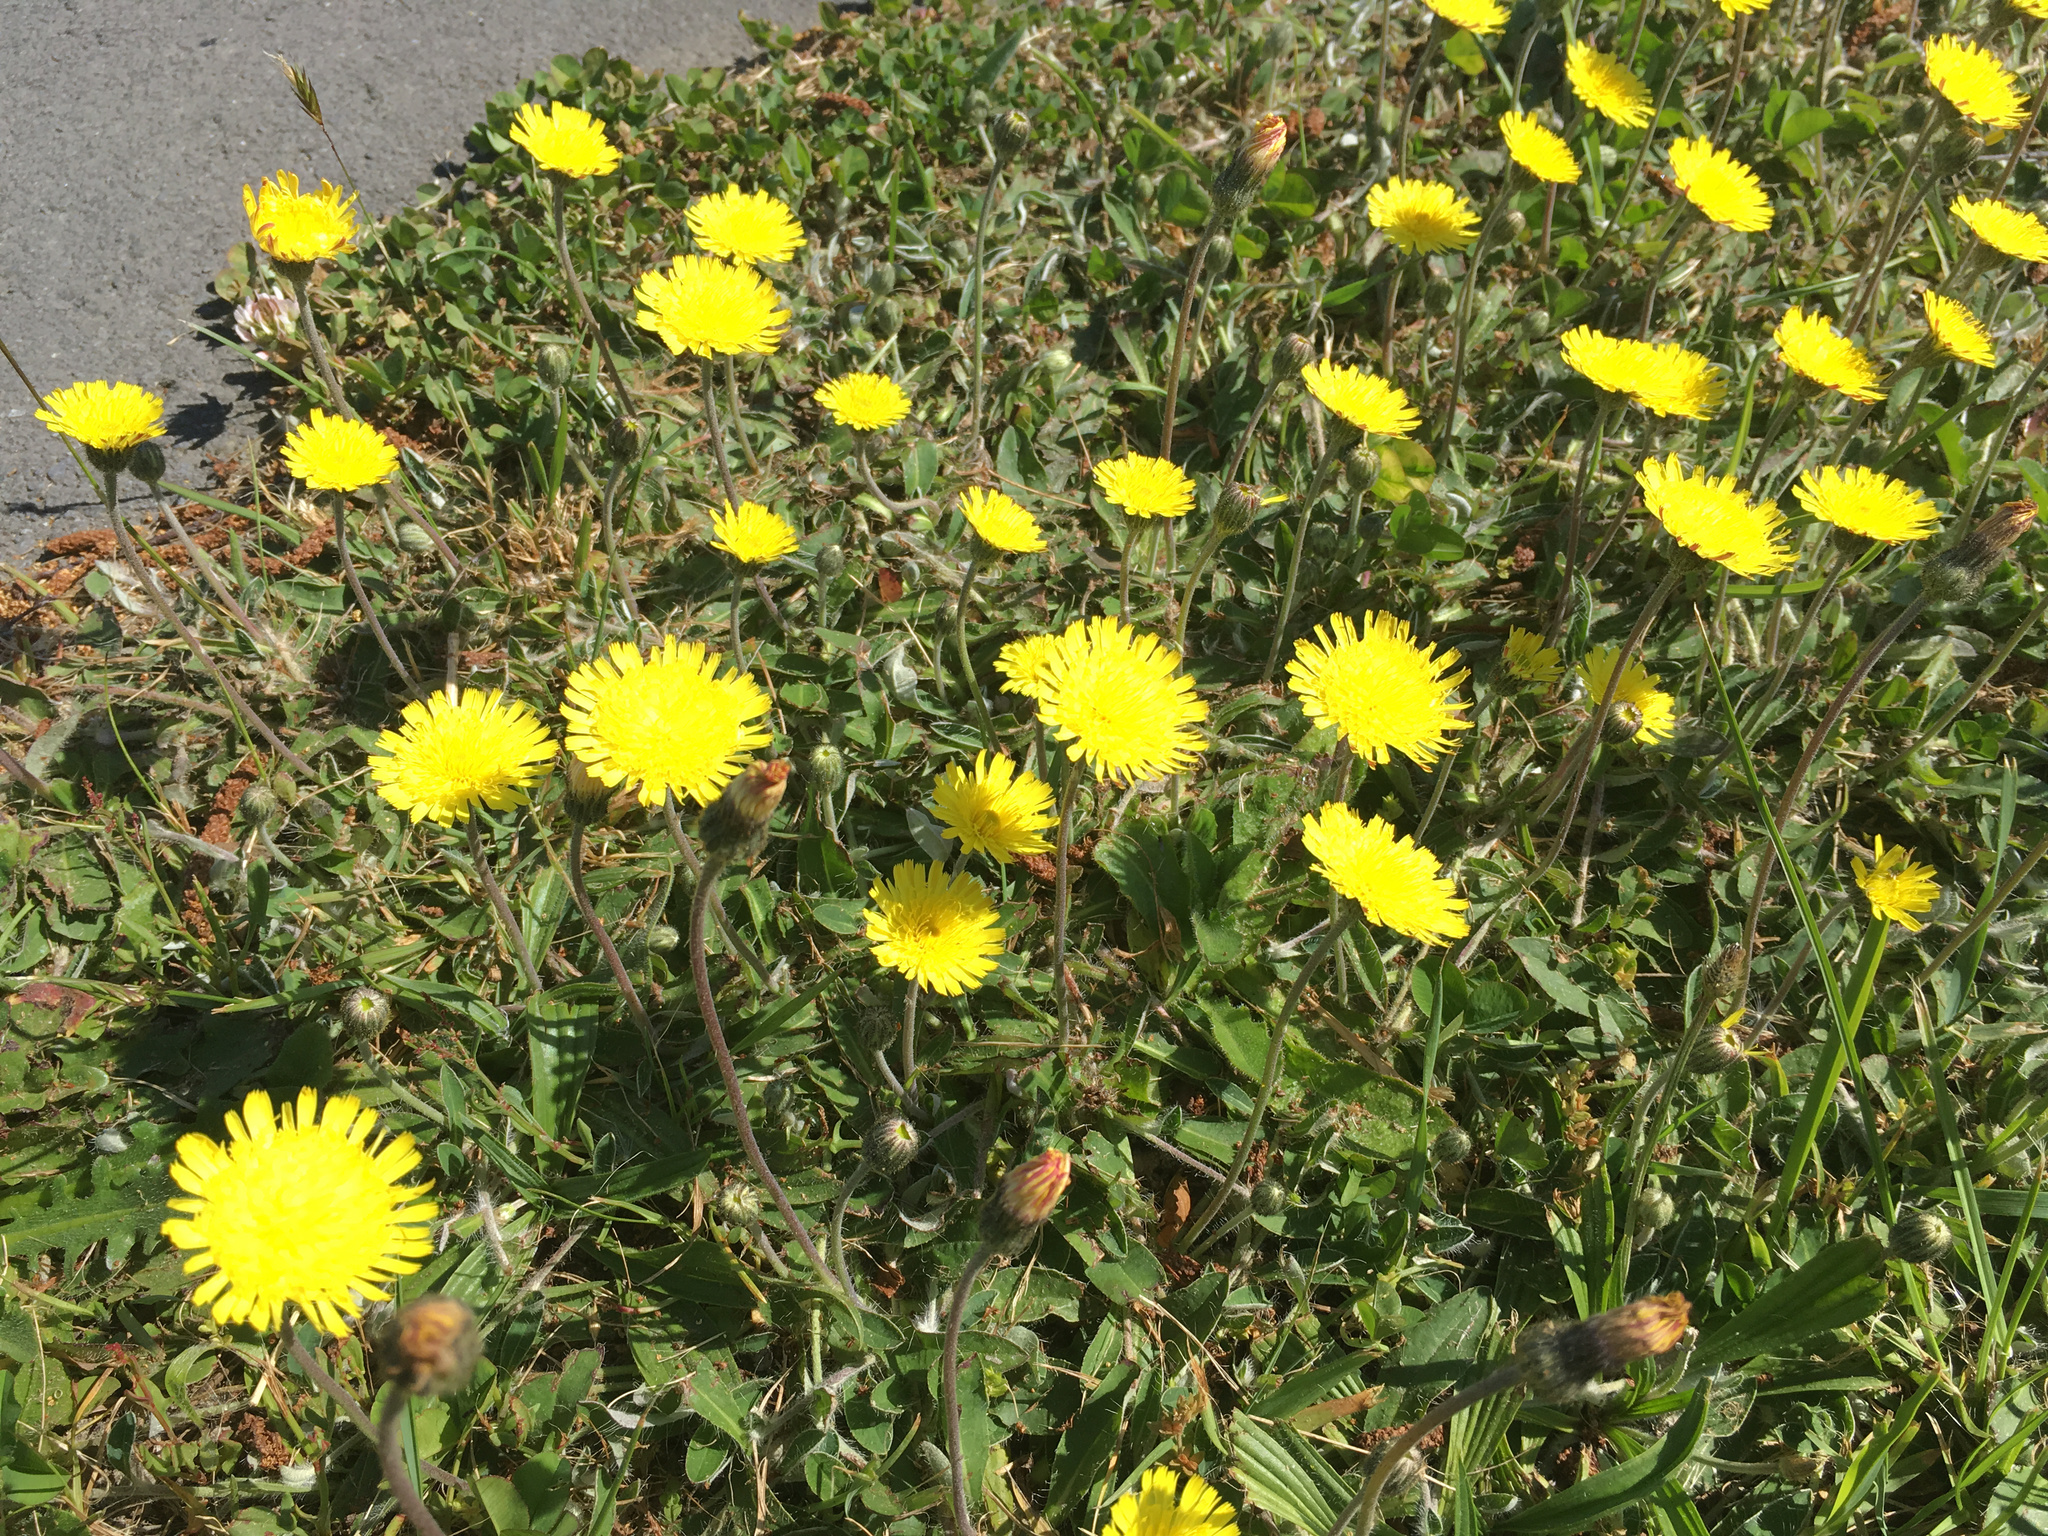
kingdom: Plantae
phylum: Tracheophyta
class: Magnoliopsida
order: Asterales
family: Asteraceae
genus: Pilosella
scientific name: Pilosella officinarum
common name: Mouse-ear hawkweed
